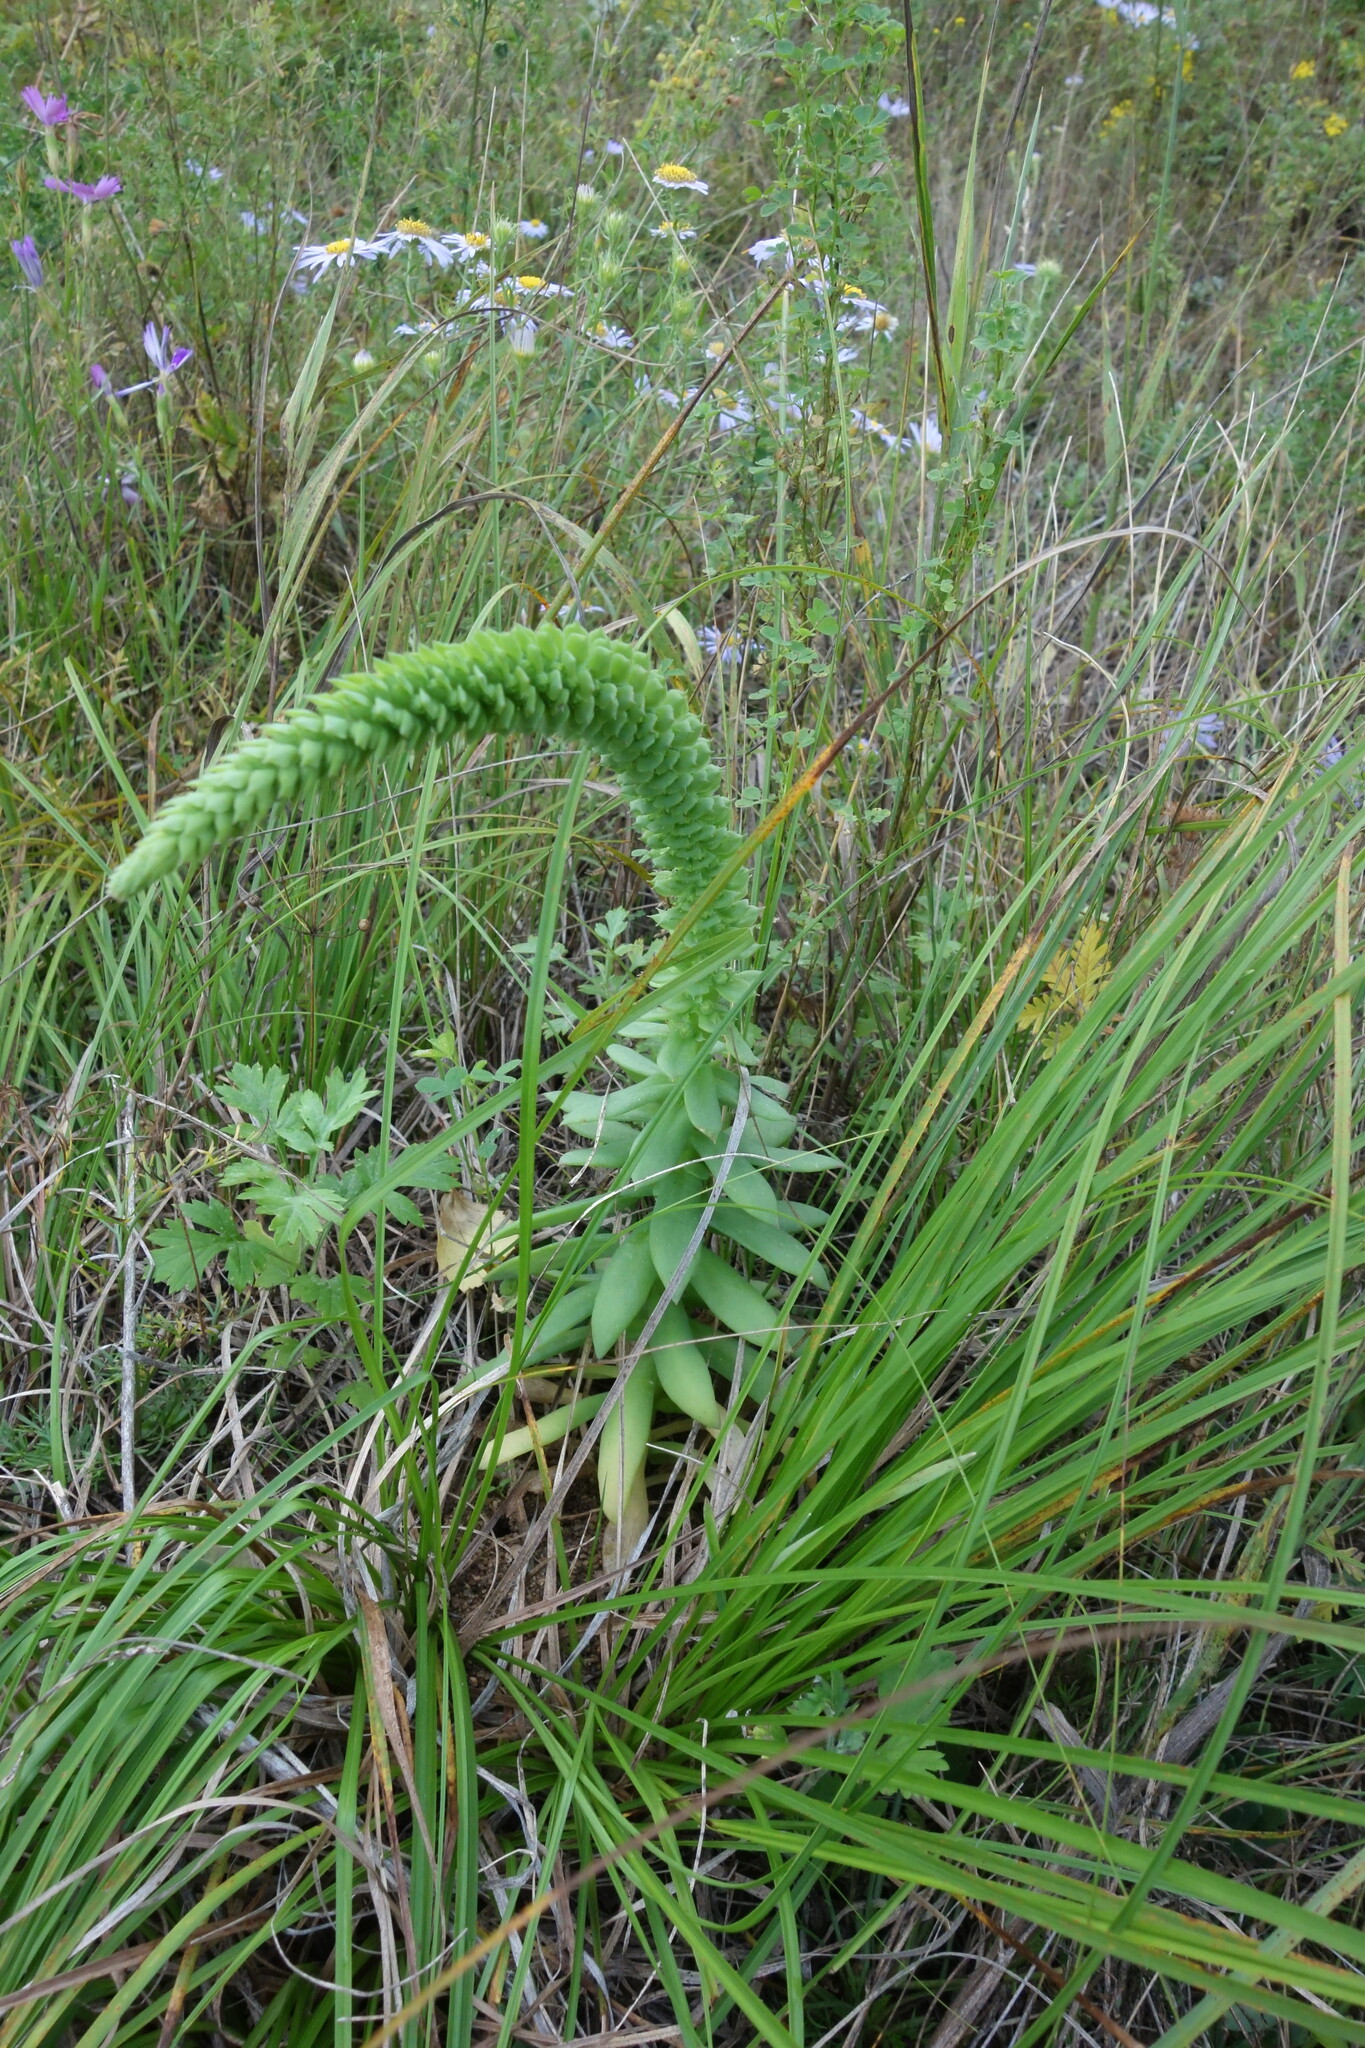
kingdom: Plantae
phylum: Tracheophyta
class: Magnoliopsida
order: Saxifragales
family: Crassulaceae
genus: Orostachys
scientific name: Orostachys spinosa
